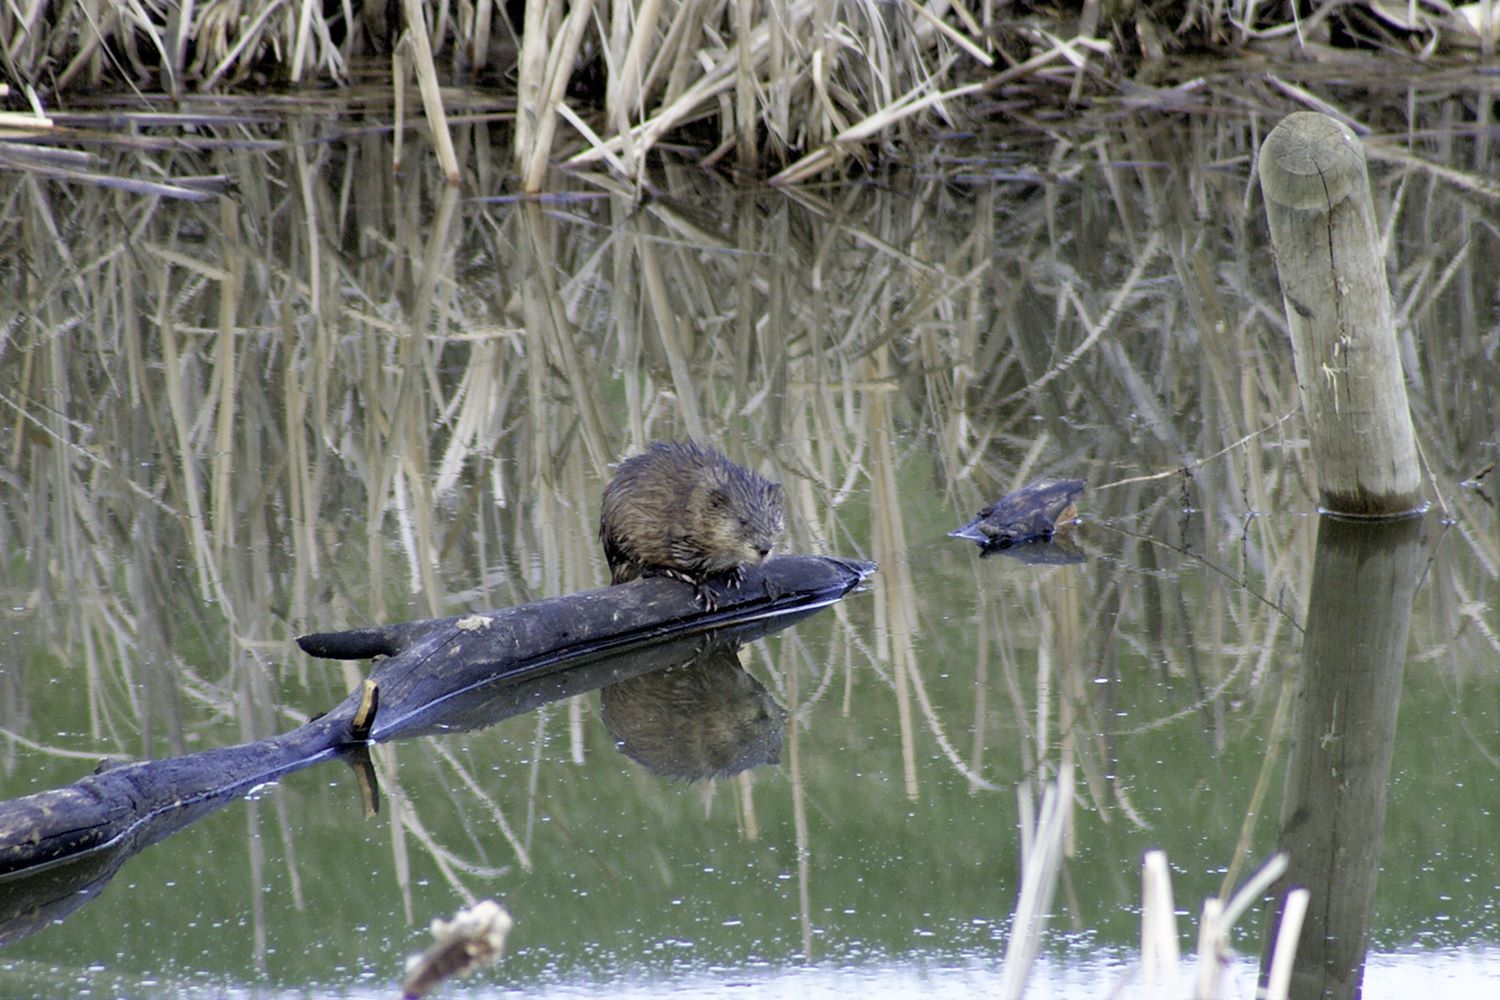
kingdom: Animalia
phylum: Chordata
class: Mammalia
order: Rodentia
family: Cricetidae
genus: Ondatra
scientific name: Ondatra zibethicus
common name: Muskrat
